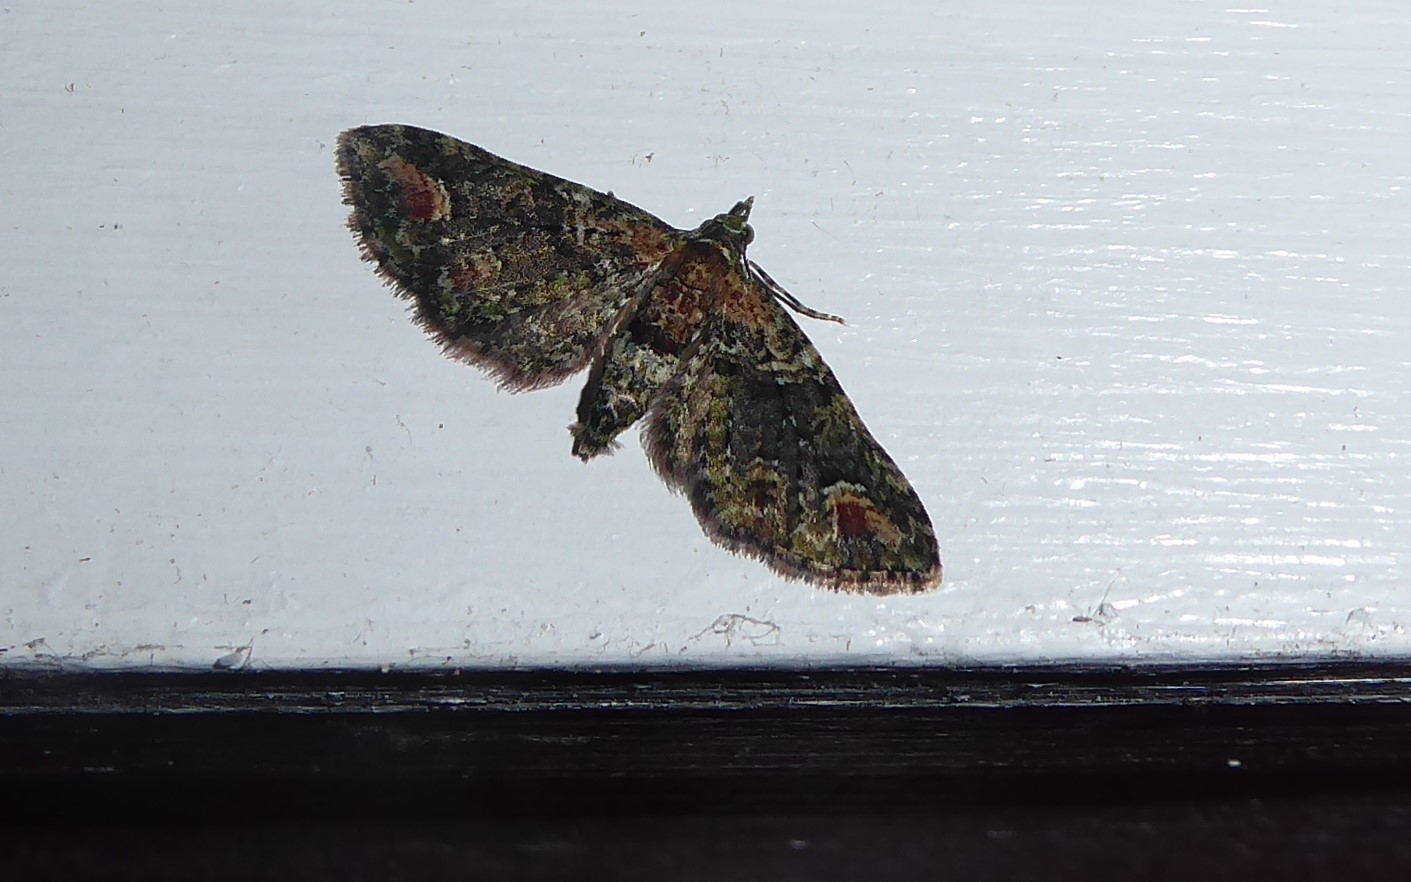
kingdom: Animalia
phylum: Arthropoda
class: Insecta
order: Lepidoptera
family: Geometridae
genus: Idaea
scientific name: Idaea mutanda
